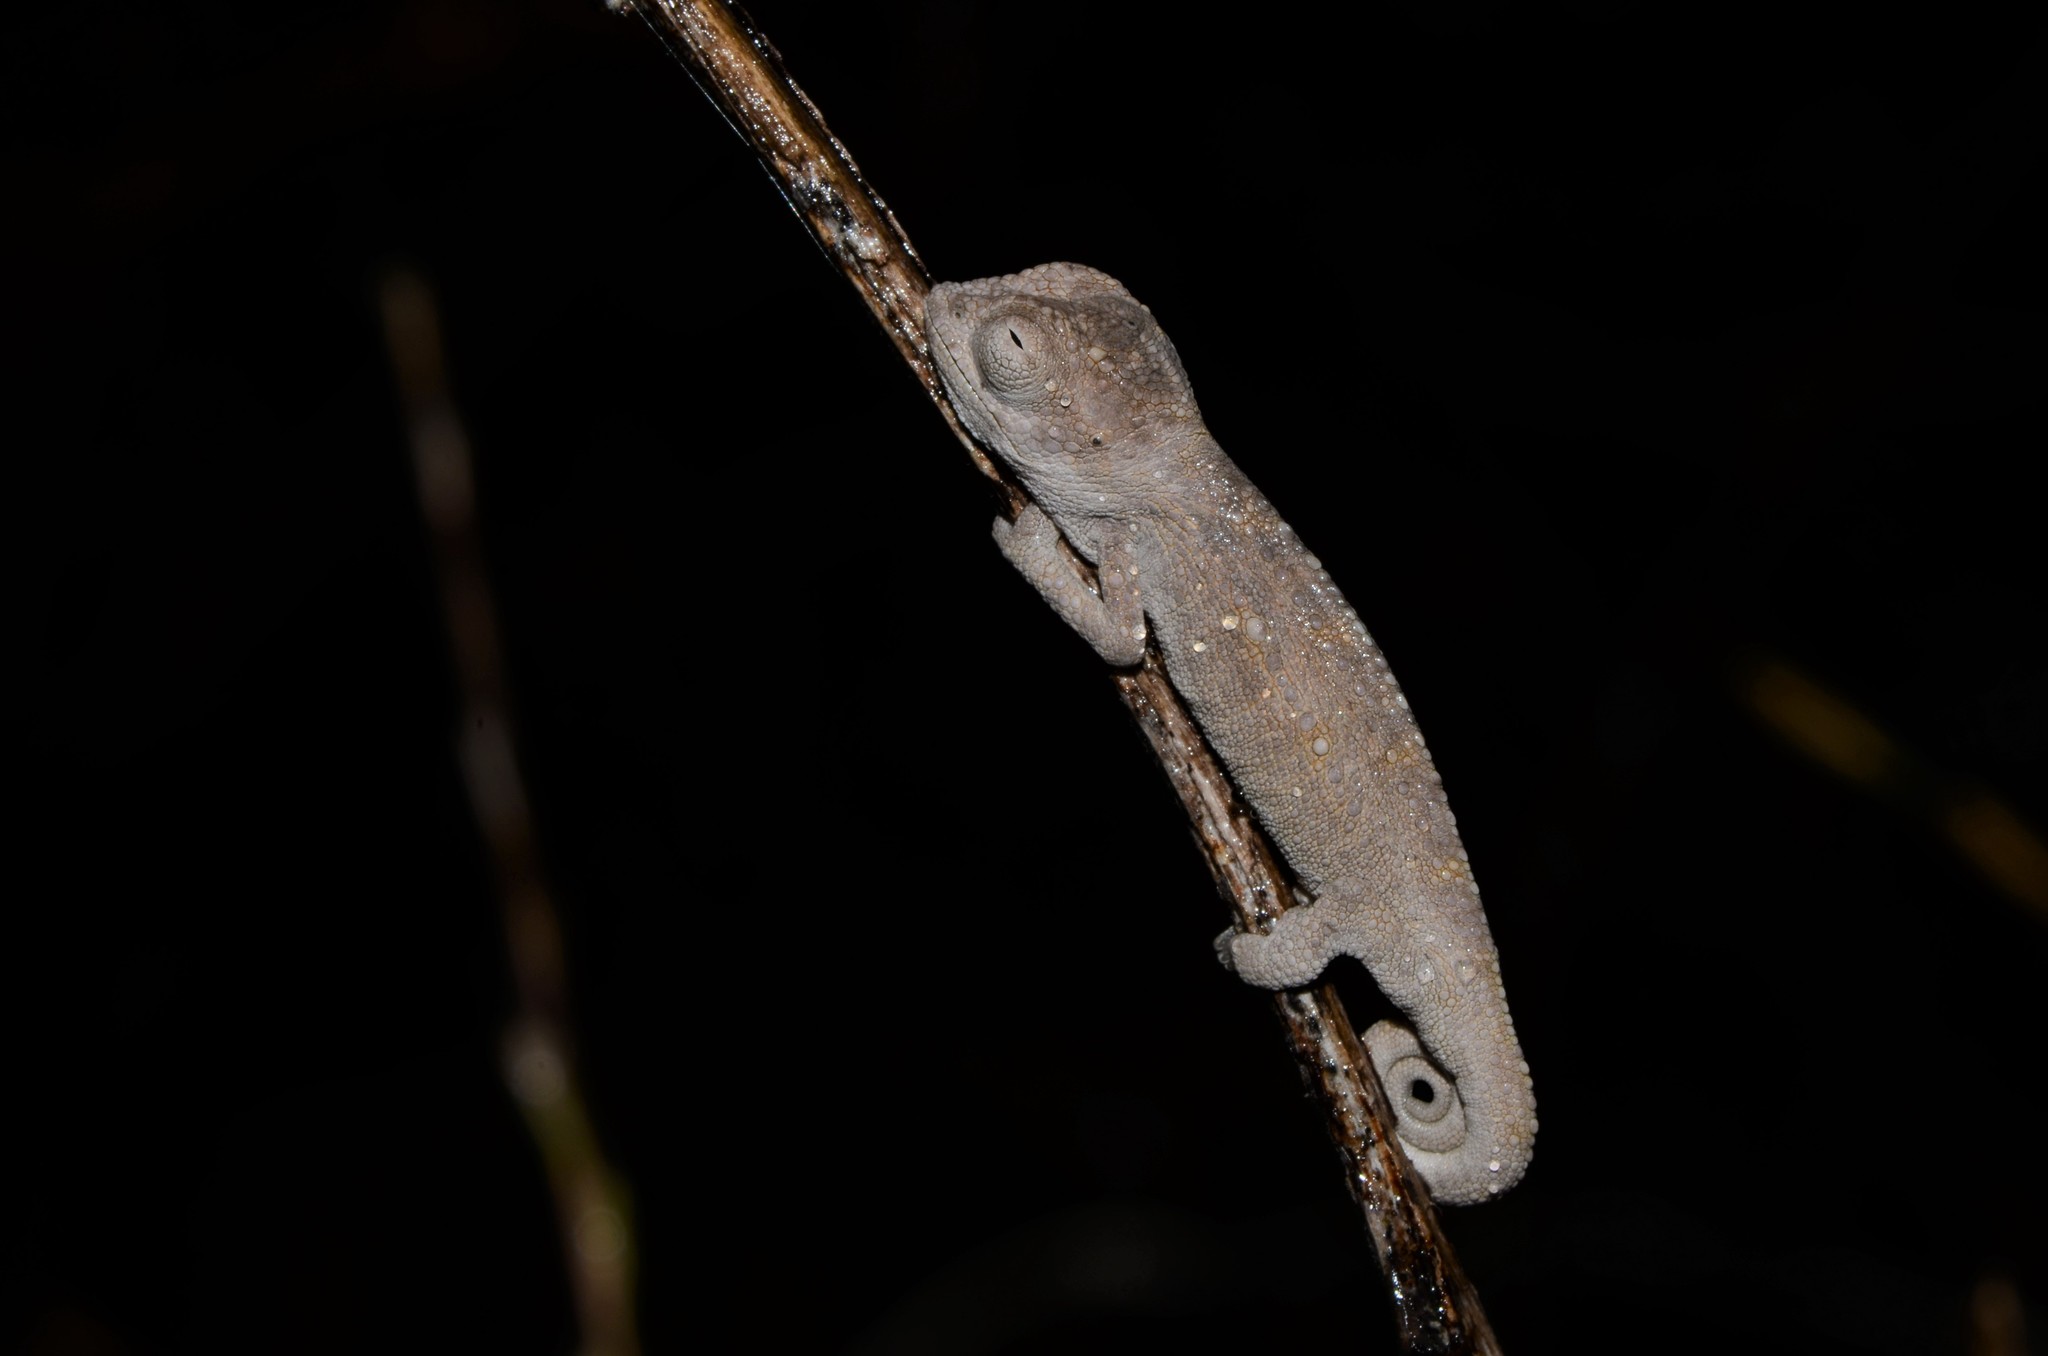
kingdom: Animalia
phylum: Chordata
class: Squamata
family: Chamaeleonidae
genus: Bradypodion
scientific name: Bradypodion pumilum
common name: Cape dwarf chameleon
